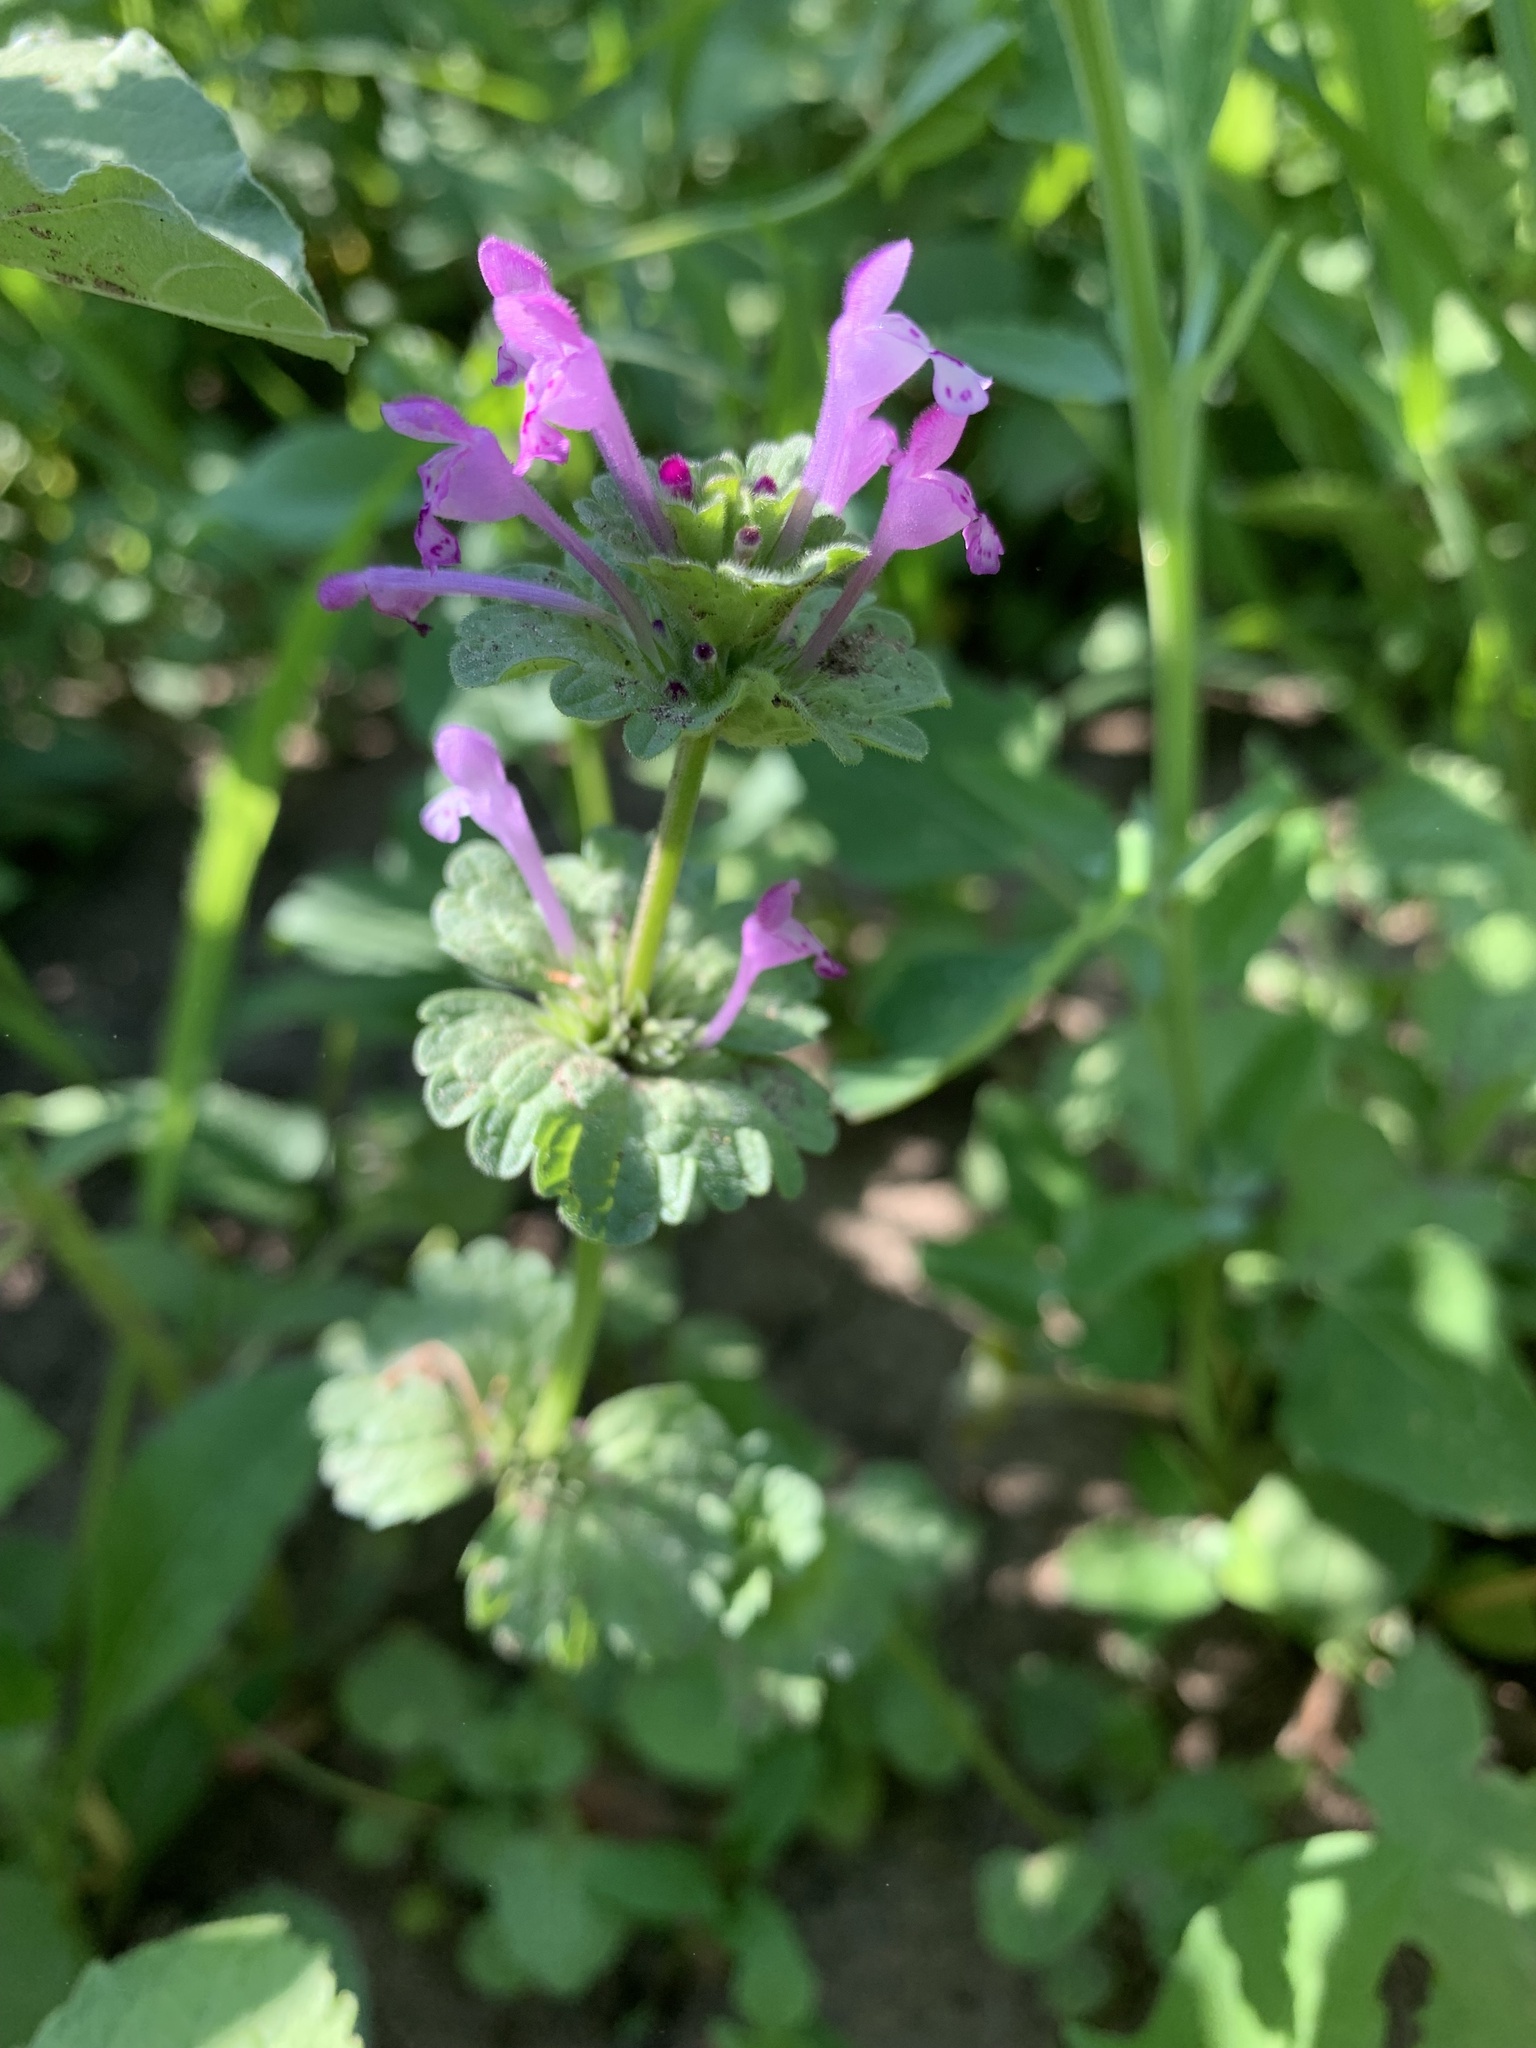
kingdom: Plantae
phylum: Tracheophyta
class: Magnoliopsida
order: Lamiales
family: Lamiaceae
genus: Lamium
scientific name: Lamium amplexicaule
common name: Henbit dead-nettle
